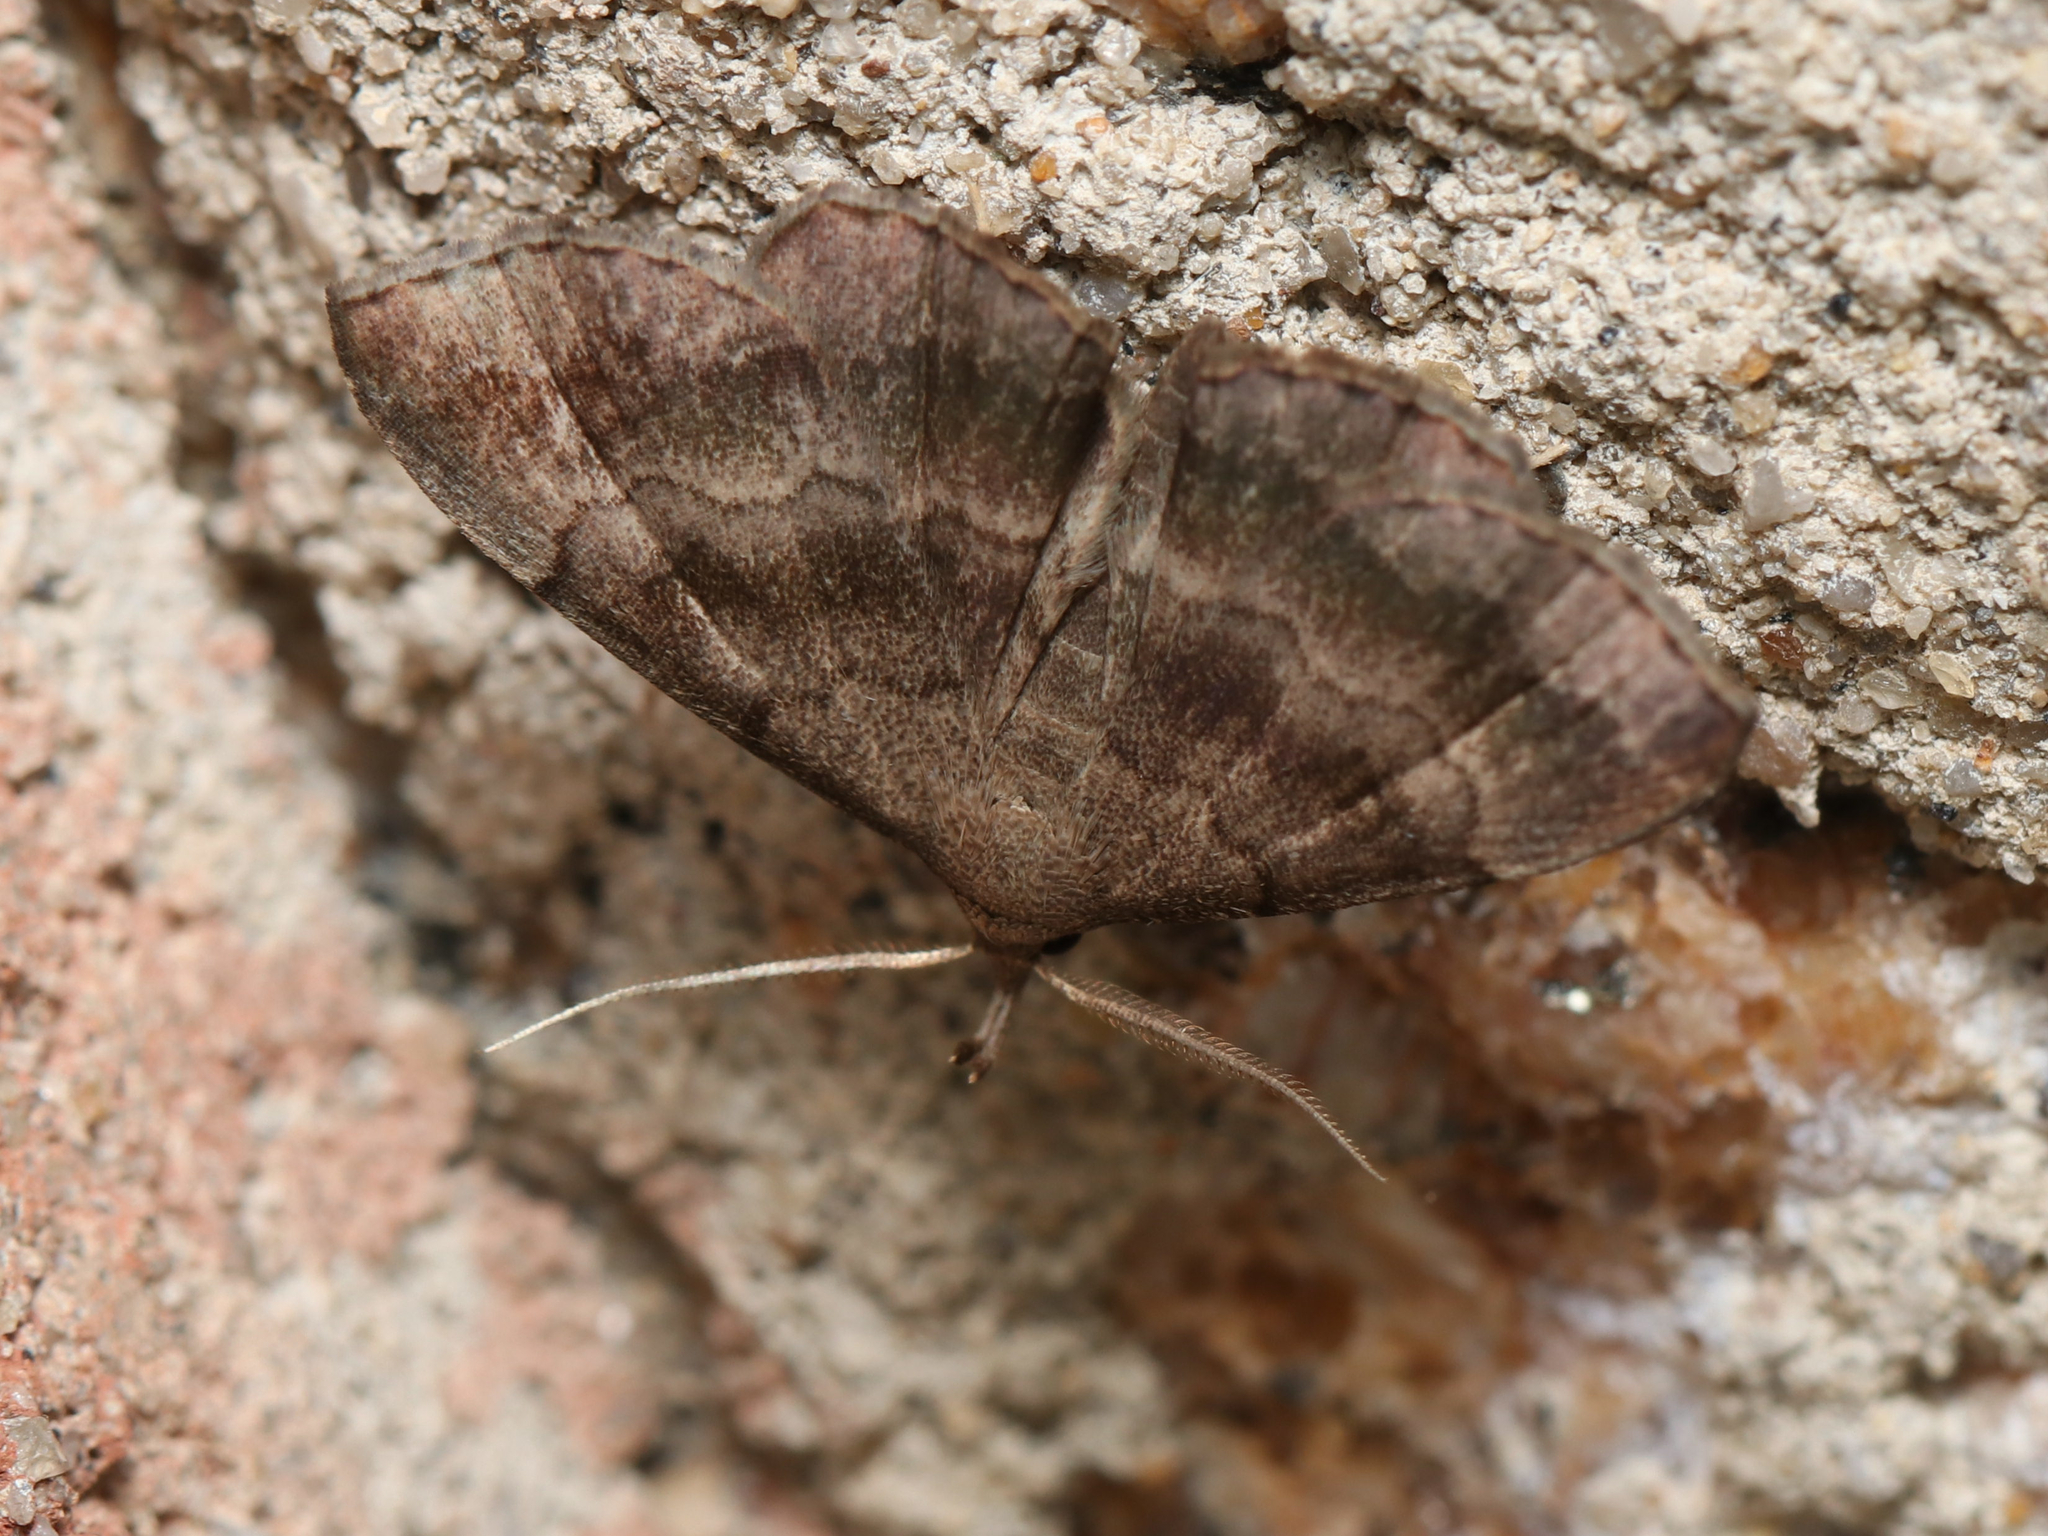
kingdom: Animalia
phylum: Arthropoda
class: Insecta
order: Lepidoptera
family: Erebidae
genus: Phalaenostola
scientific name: Phalaenostola larentioides
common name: Black-banded owlet
